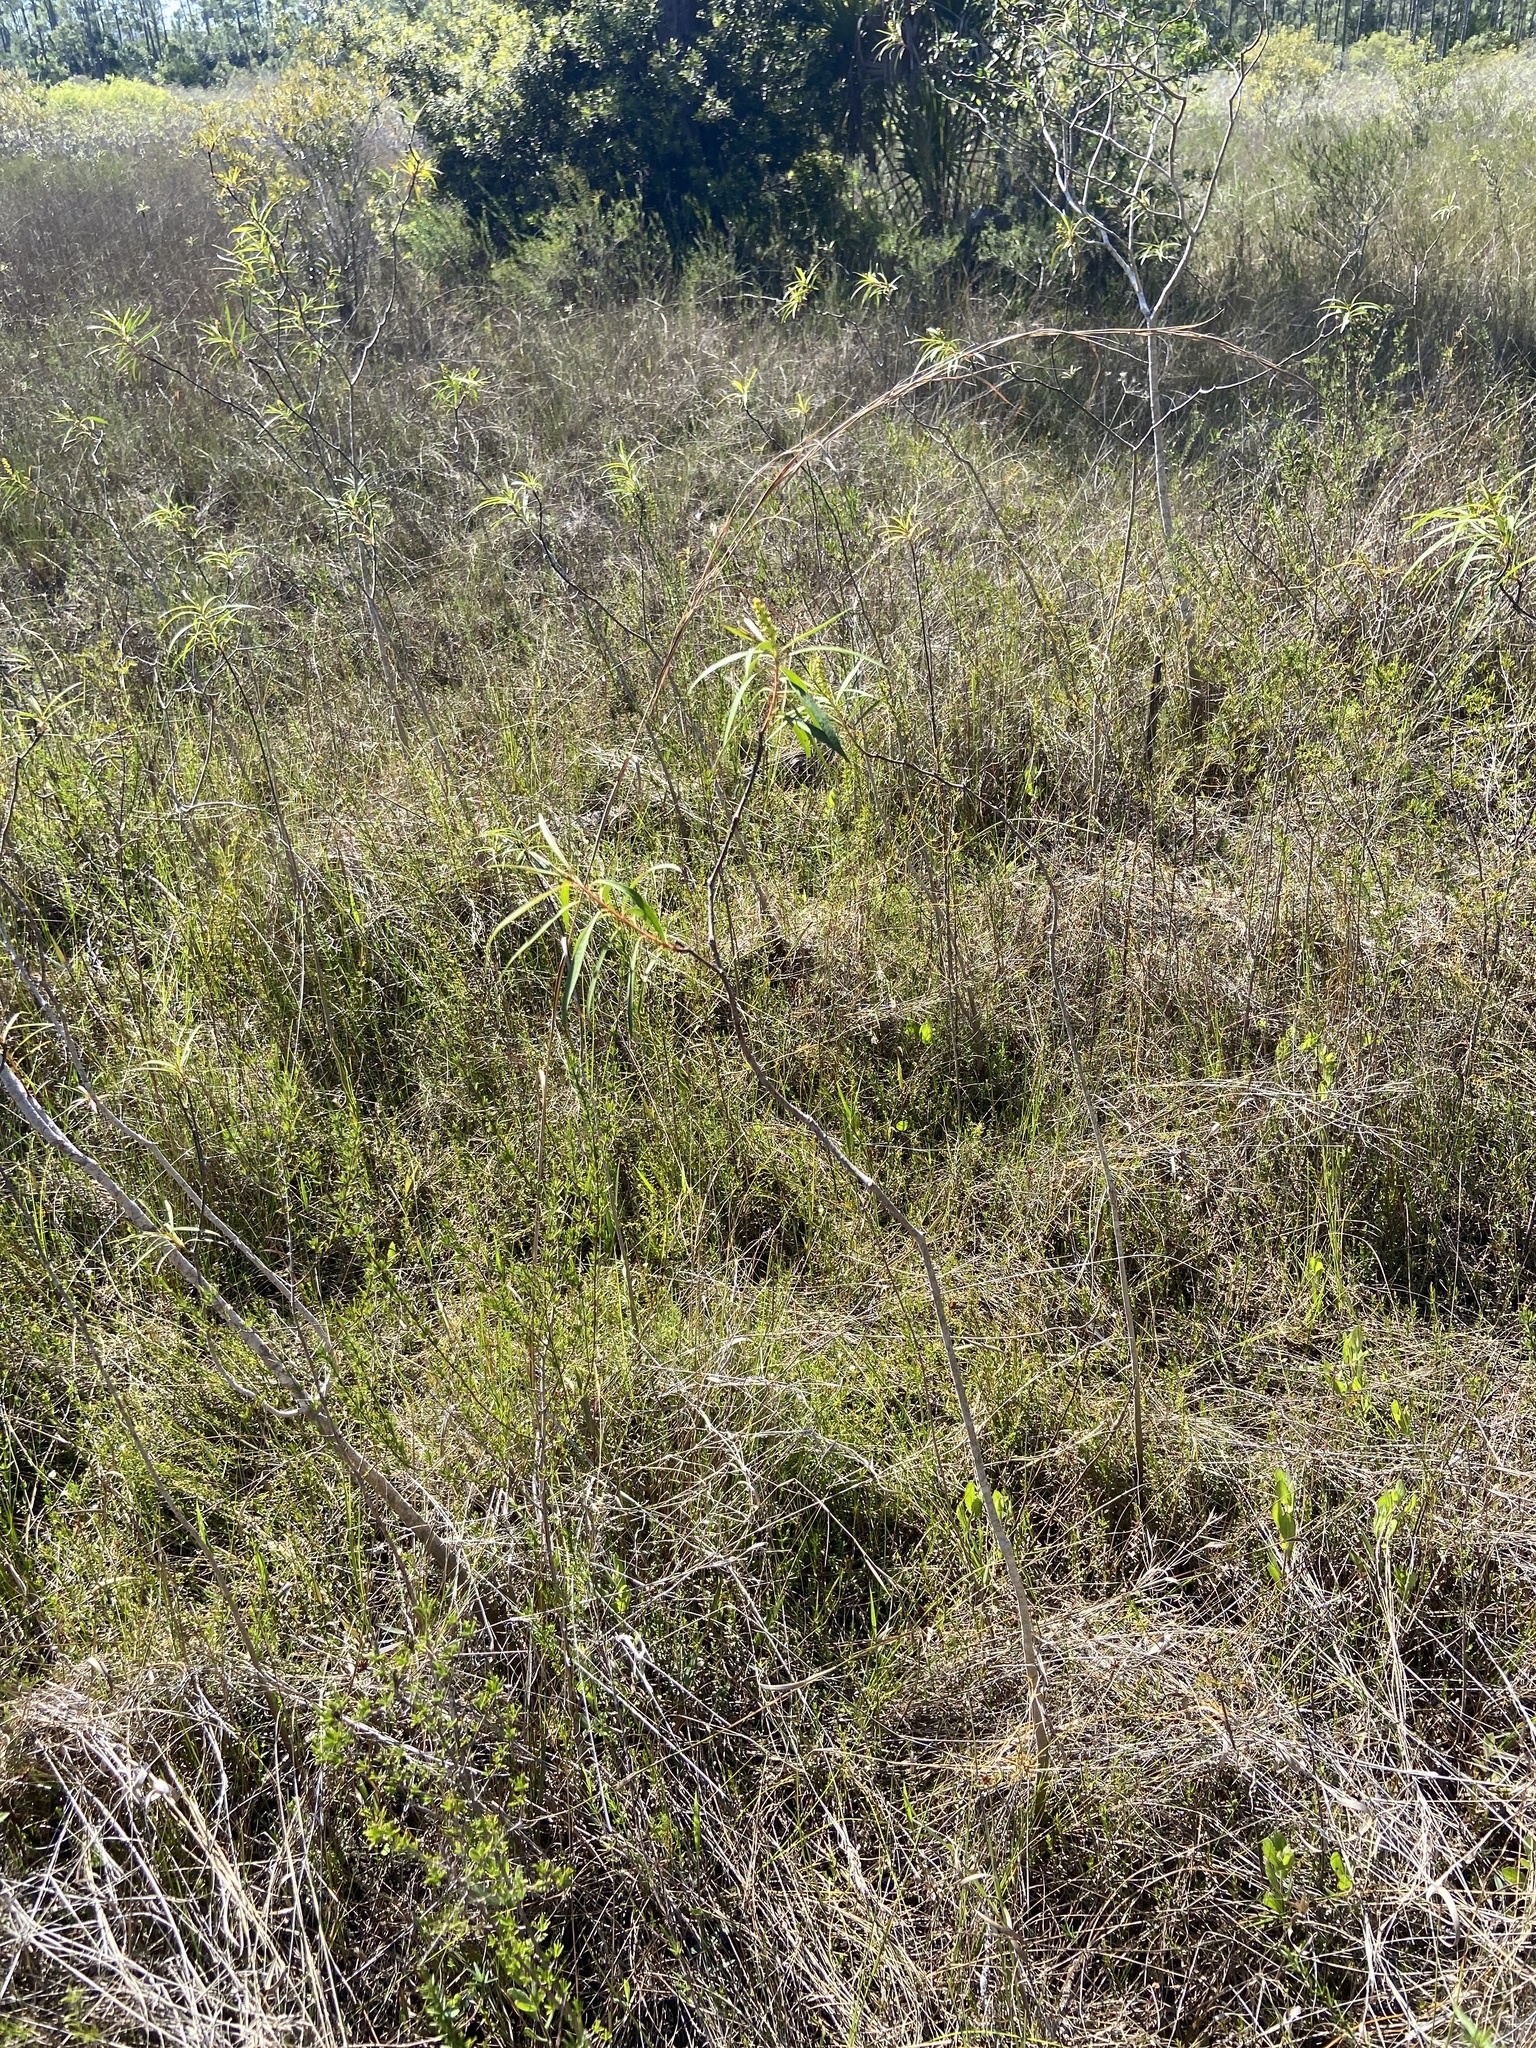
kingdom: Plantae
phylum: Tracheophyta
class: Magnoliopsida
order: Malpighiales
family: Euphorbiaceae
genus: Stillingia
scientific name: Stillingia aquatica
